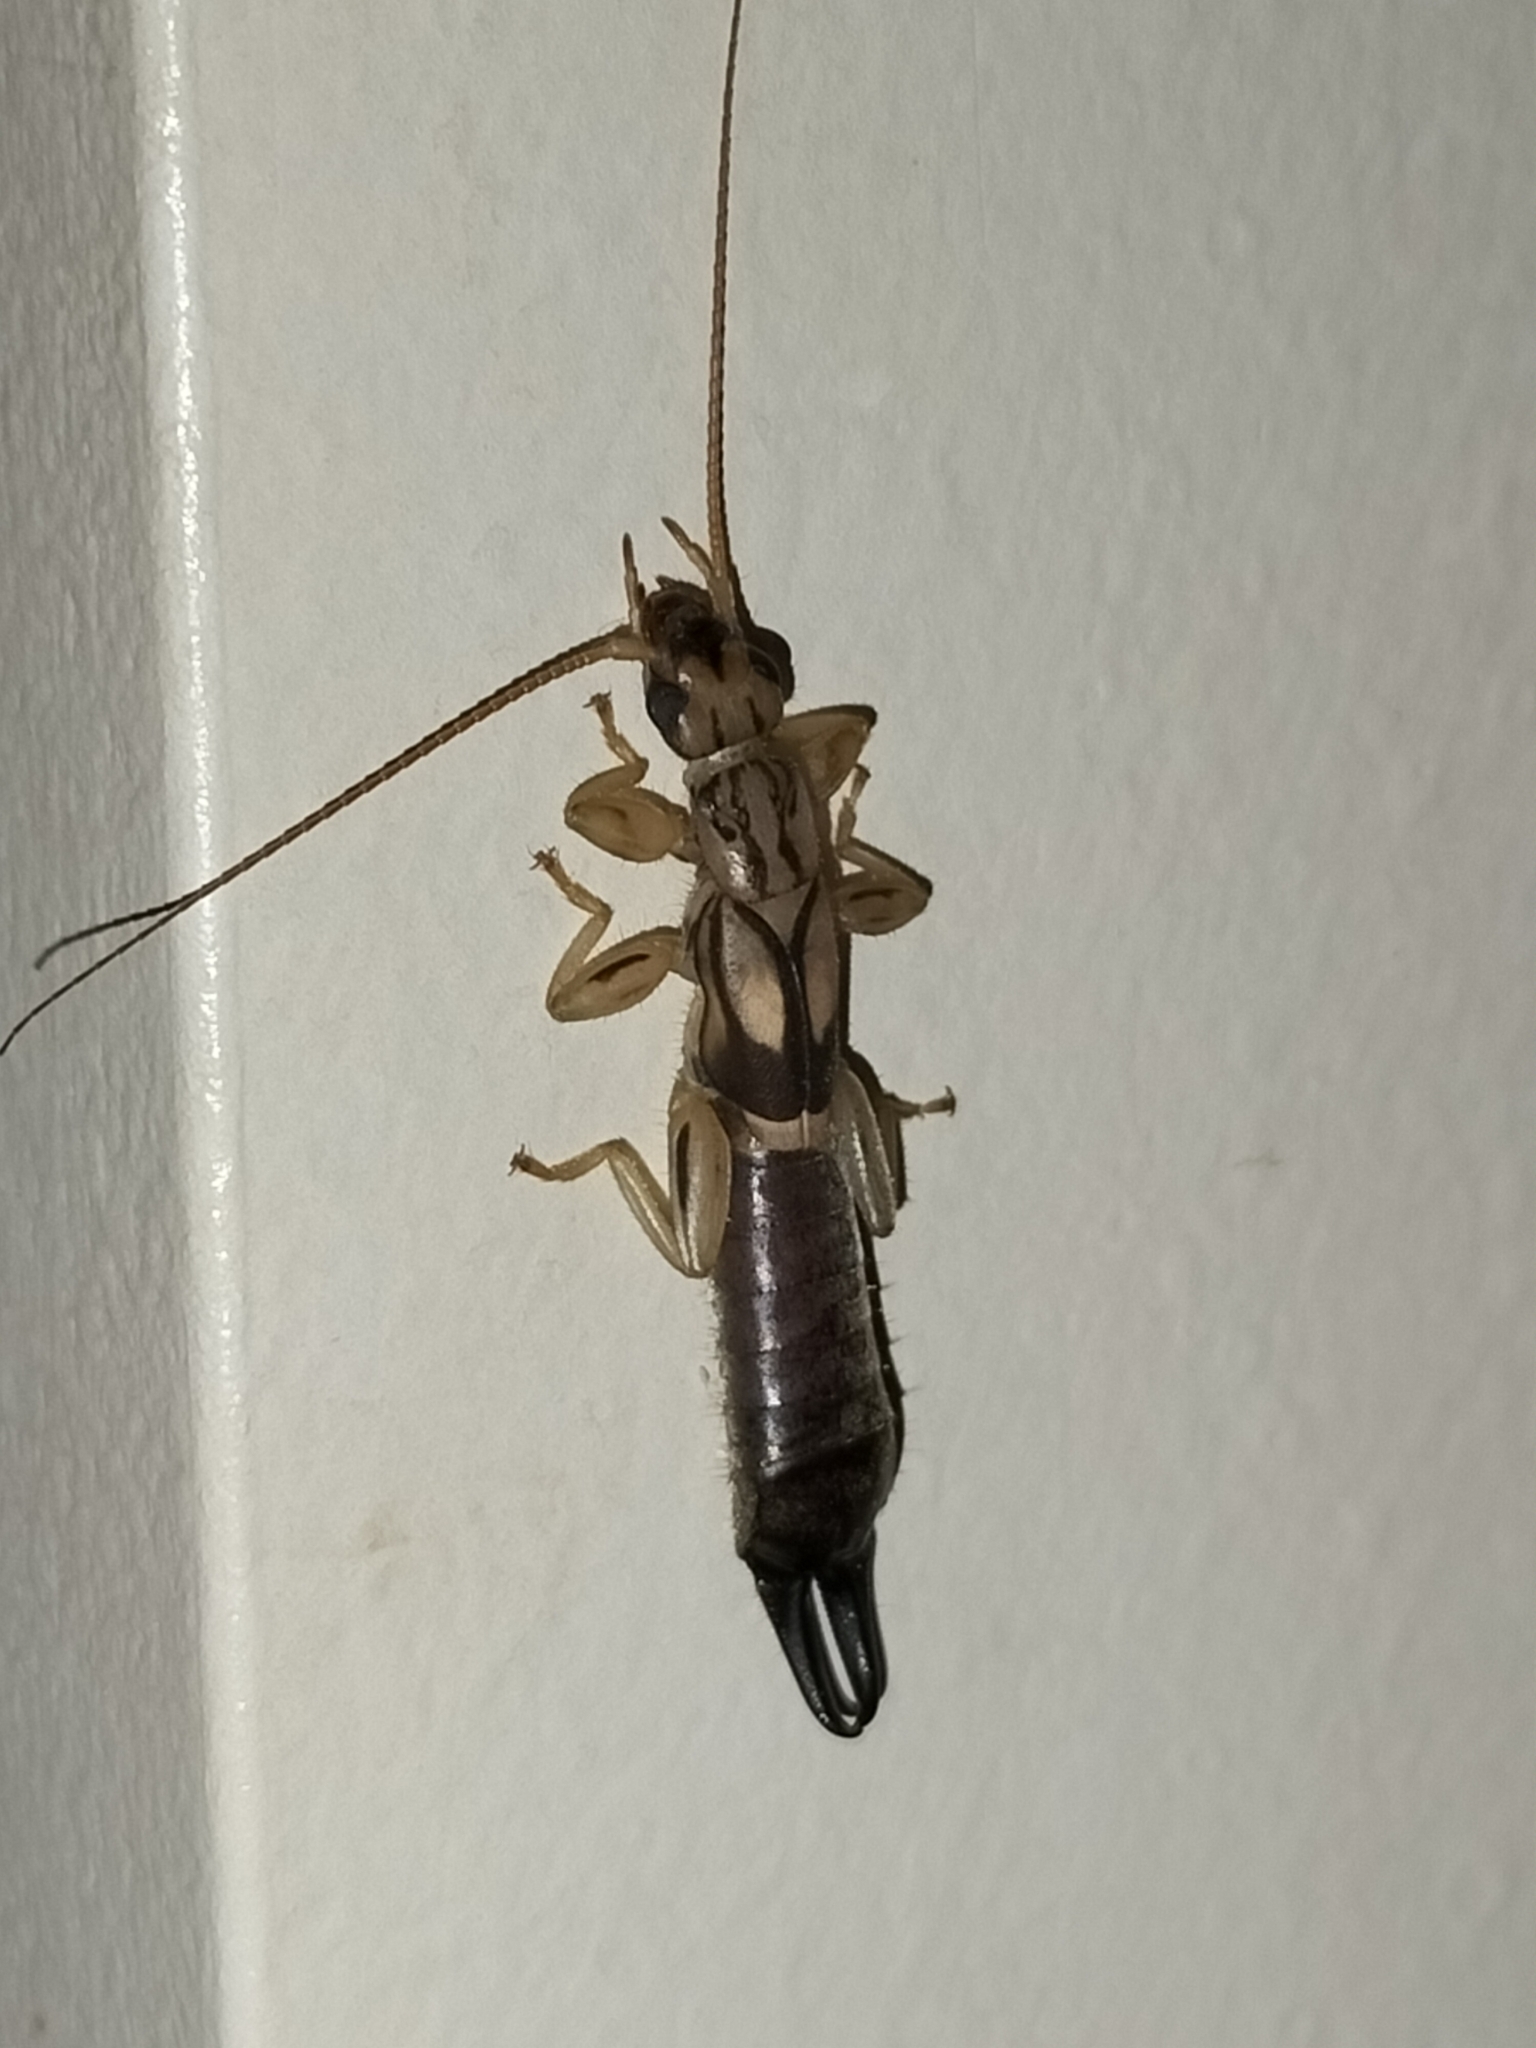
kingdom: Animalia
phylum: Arthropoda
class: Insecta
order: Dermaptera
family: Pygidicranidae
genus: Cranopygia
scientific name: Cranopygia daemeli
